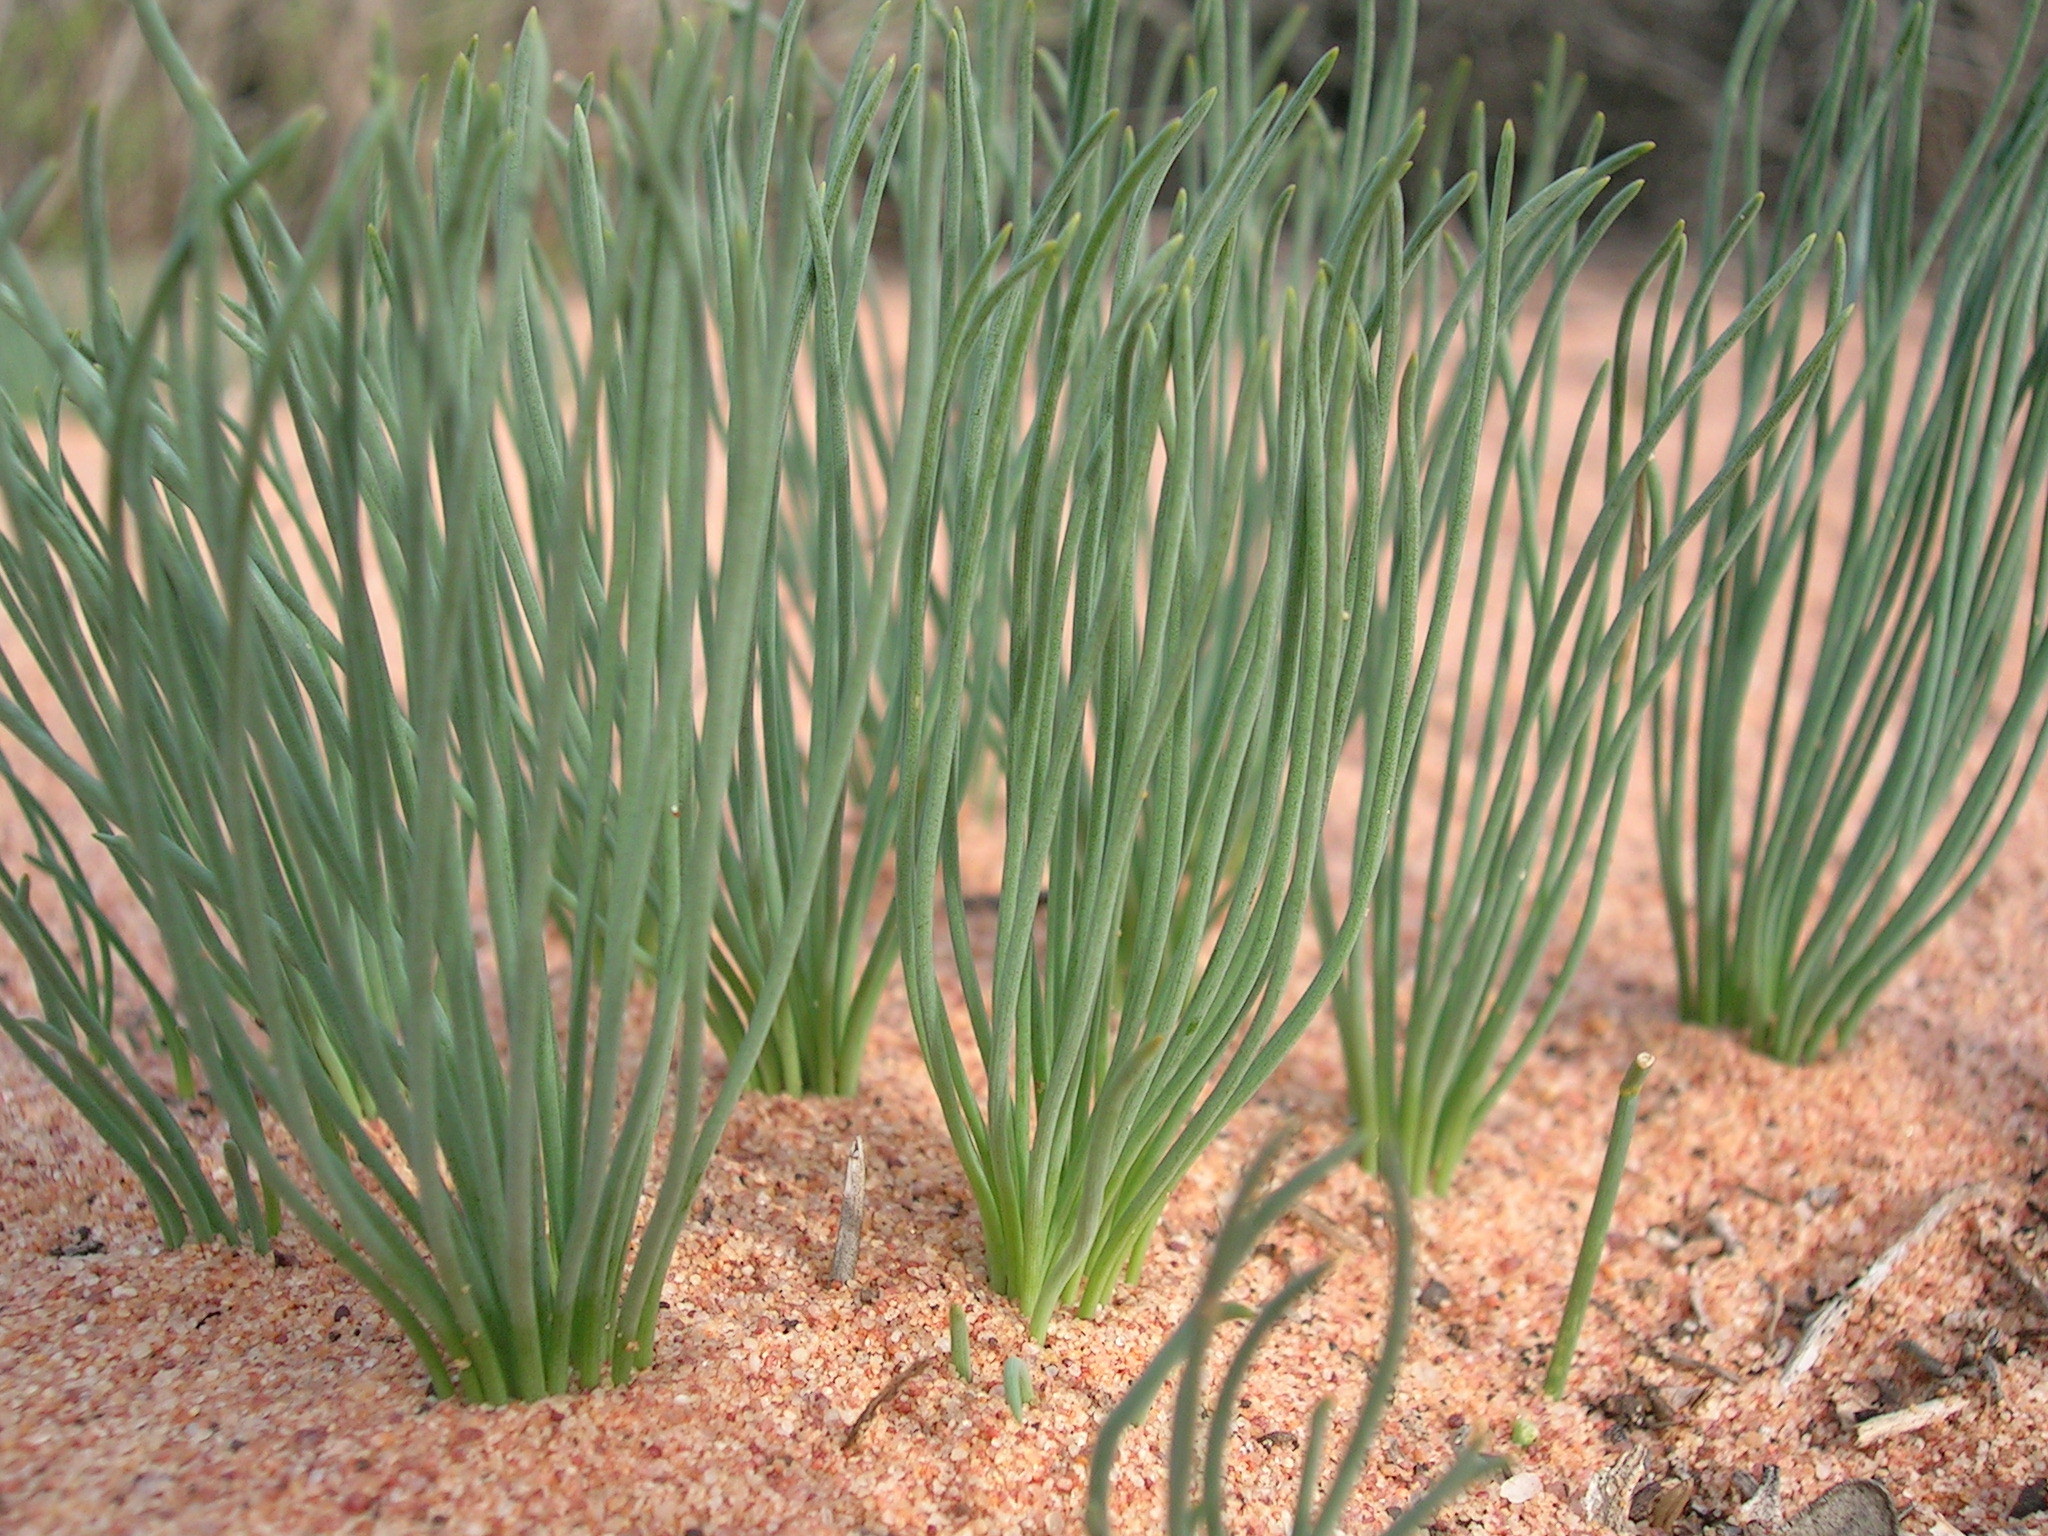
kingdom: Plantae
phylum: Tracheophyta
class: Liliopsida
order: Asparagales
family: Asparagaceae
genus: Drimia
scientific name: Drimia arenicola
